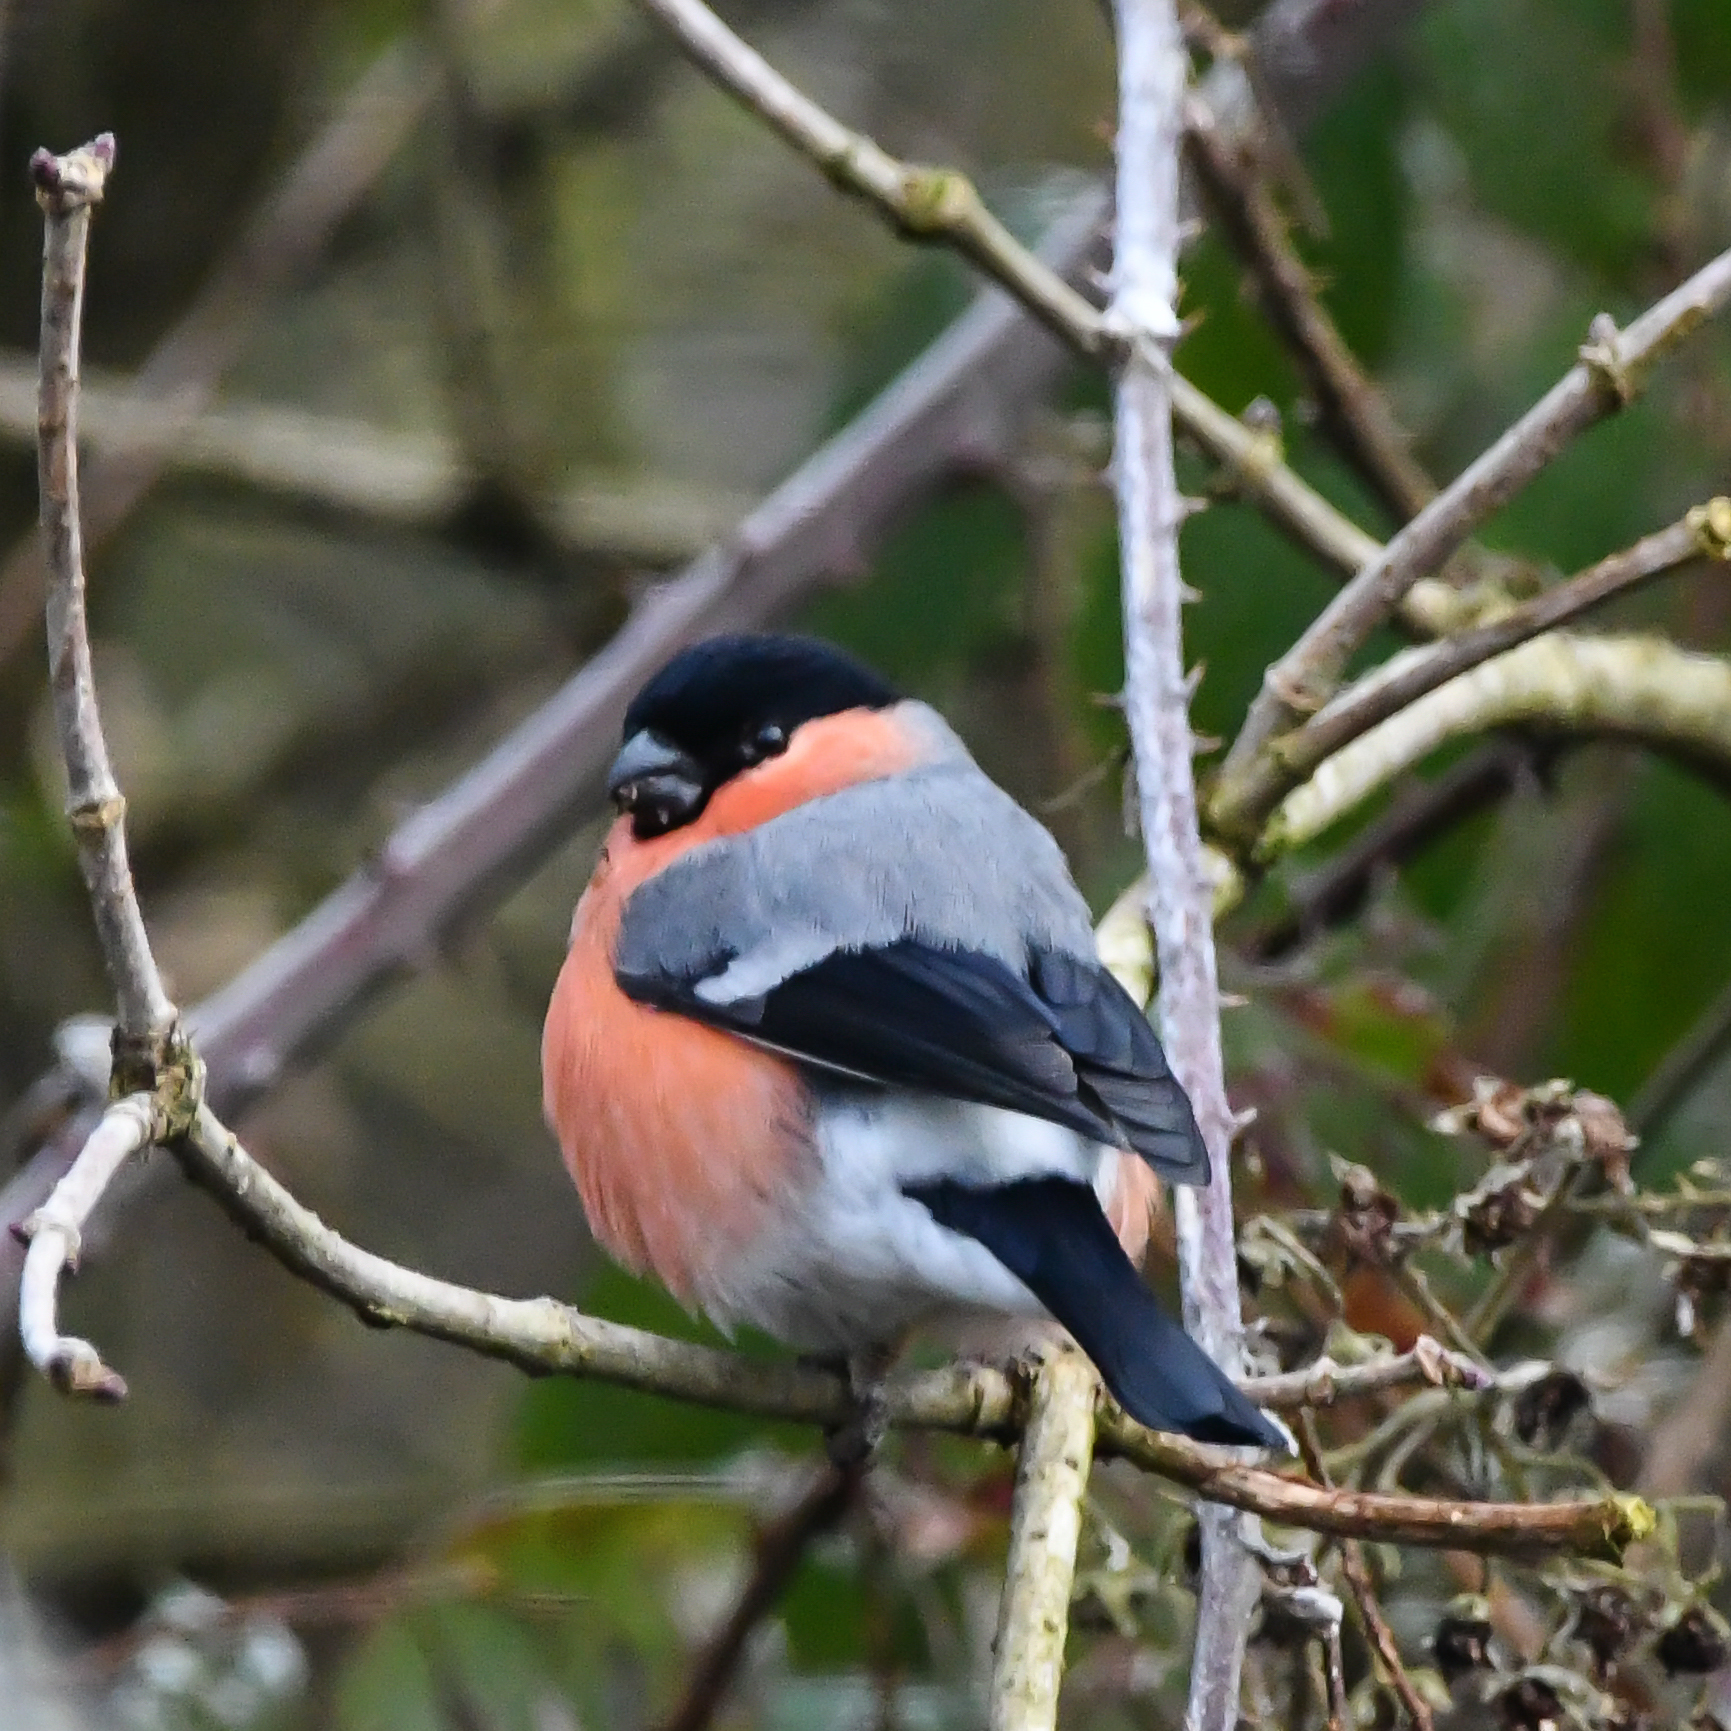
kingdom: Animalia
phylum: Chordata
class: Aves
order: Passeriformes
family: Fringillidae
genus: Pyrrhula
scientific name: Pyrrhula pyrrhula
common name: Eurasian bullfinch
